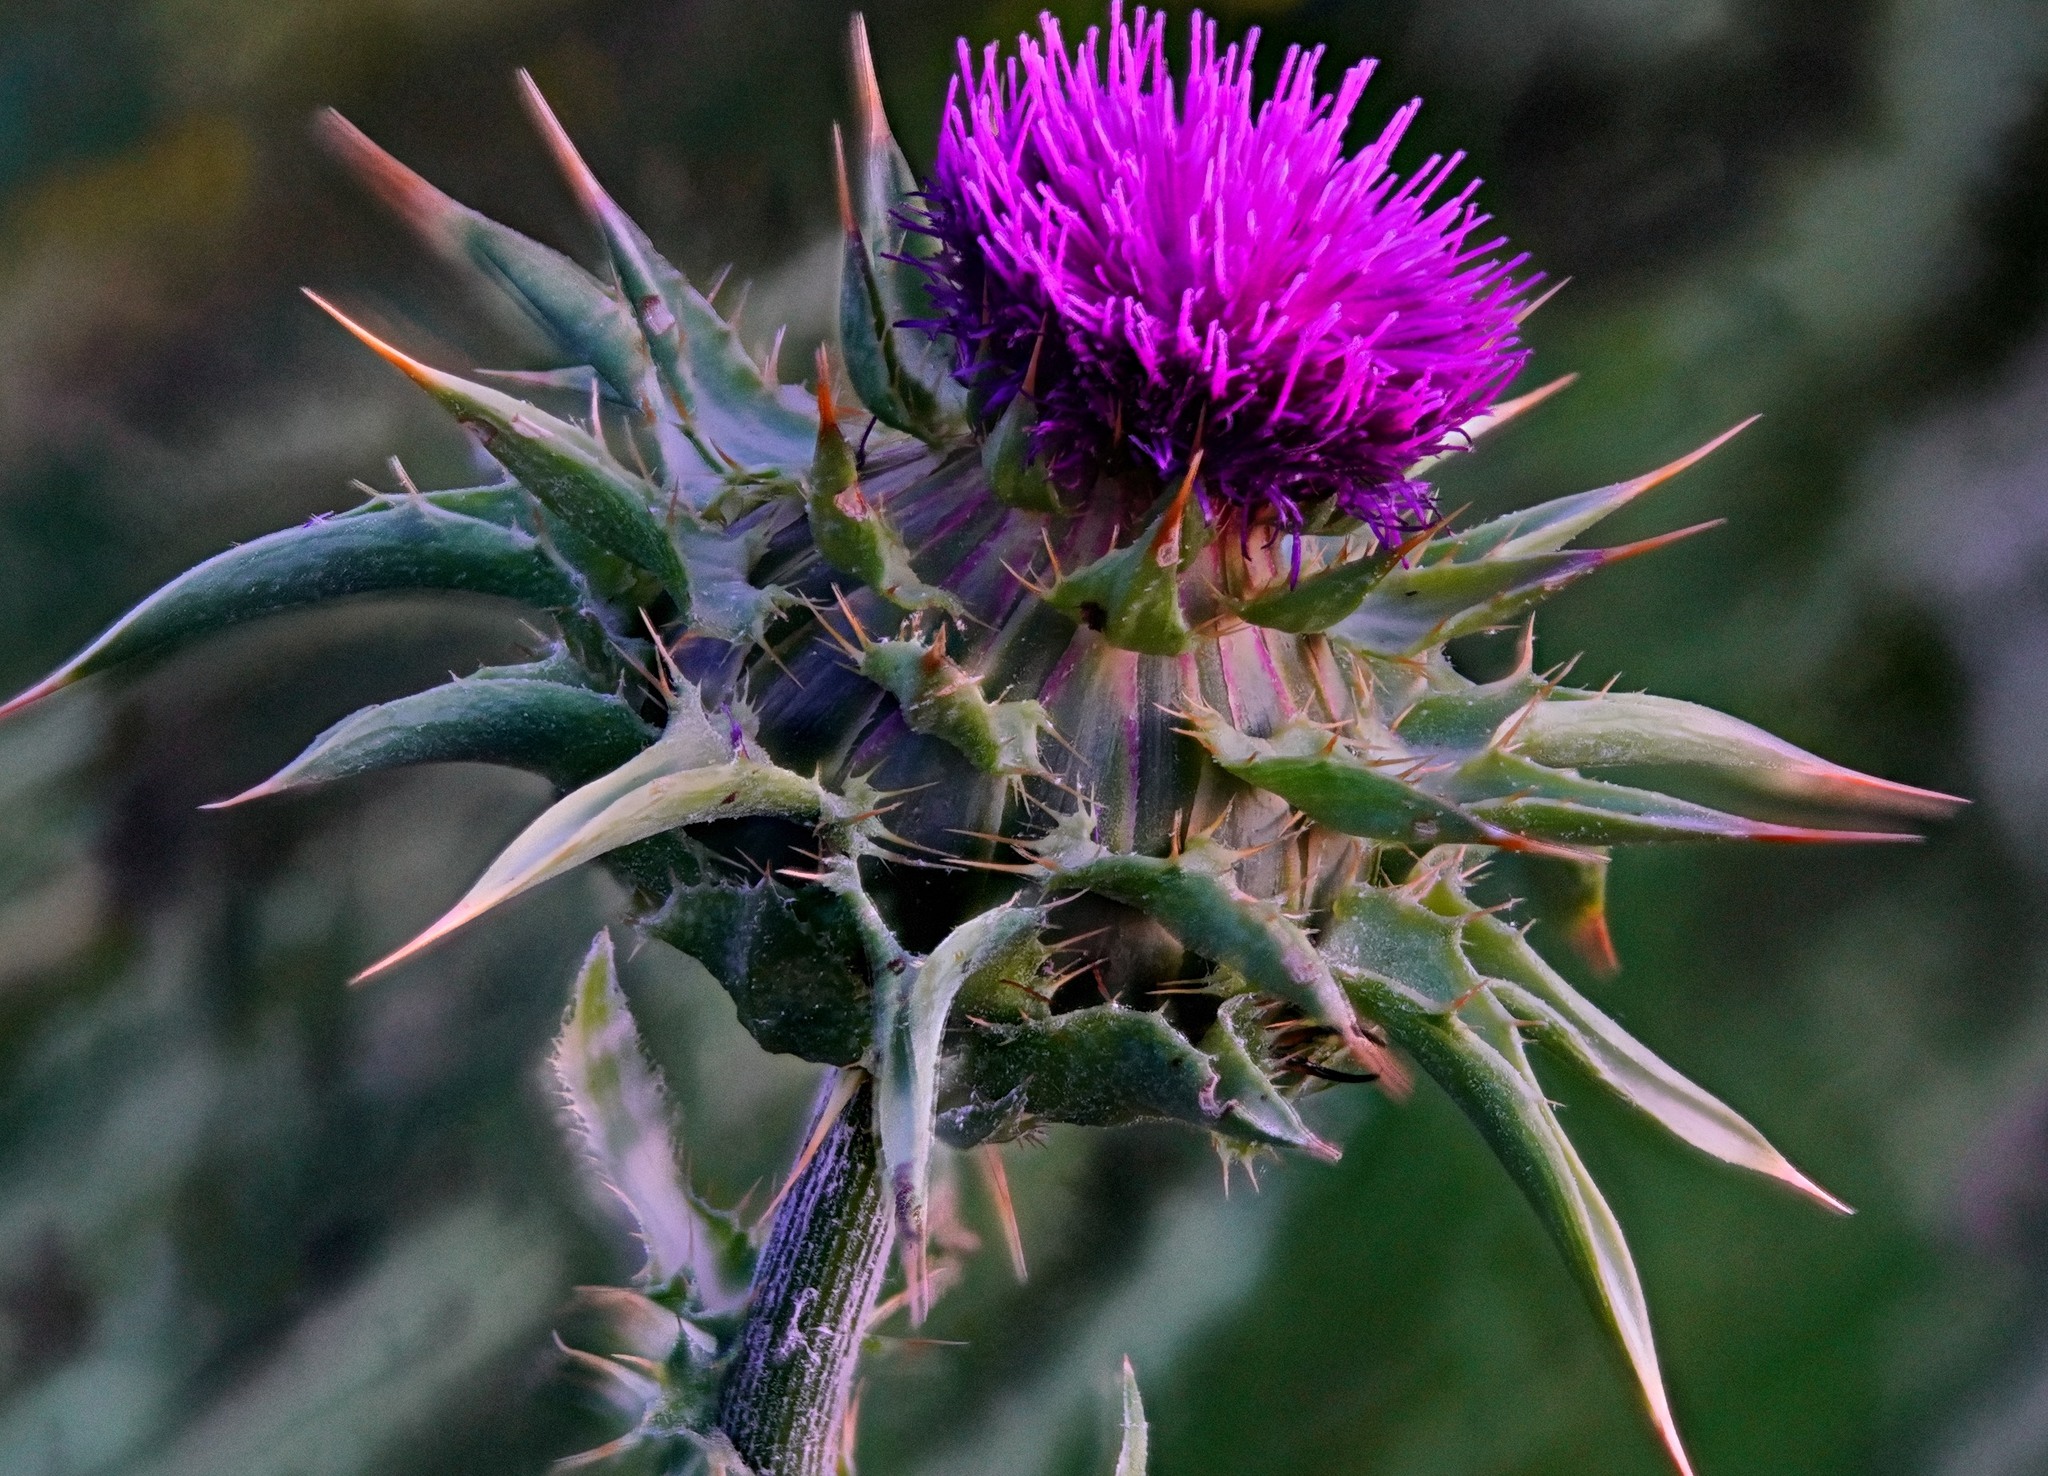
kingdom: Plantae
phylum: Tracheophyta
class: Magnoliopsida
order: Asterales
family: Asteraceae
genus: Silybum
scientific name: Silybum marianum
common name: Milk thistle
